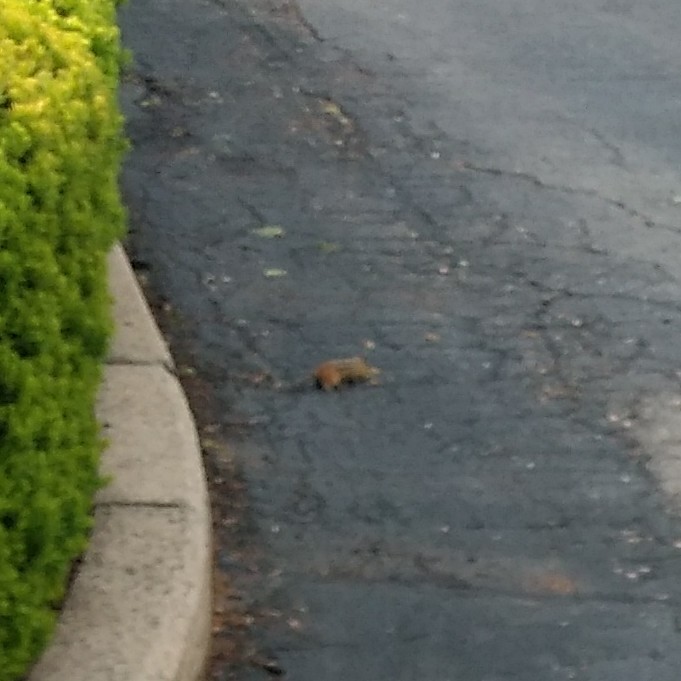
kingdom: Animalia
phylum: Chordata
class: Mammalia
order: Rodentia
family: Sciuridae
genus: Tamias
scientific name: Tamias striatus
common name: Eastern chipmunk
